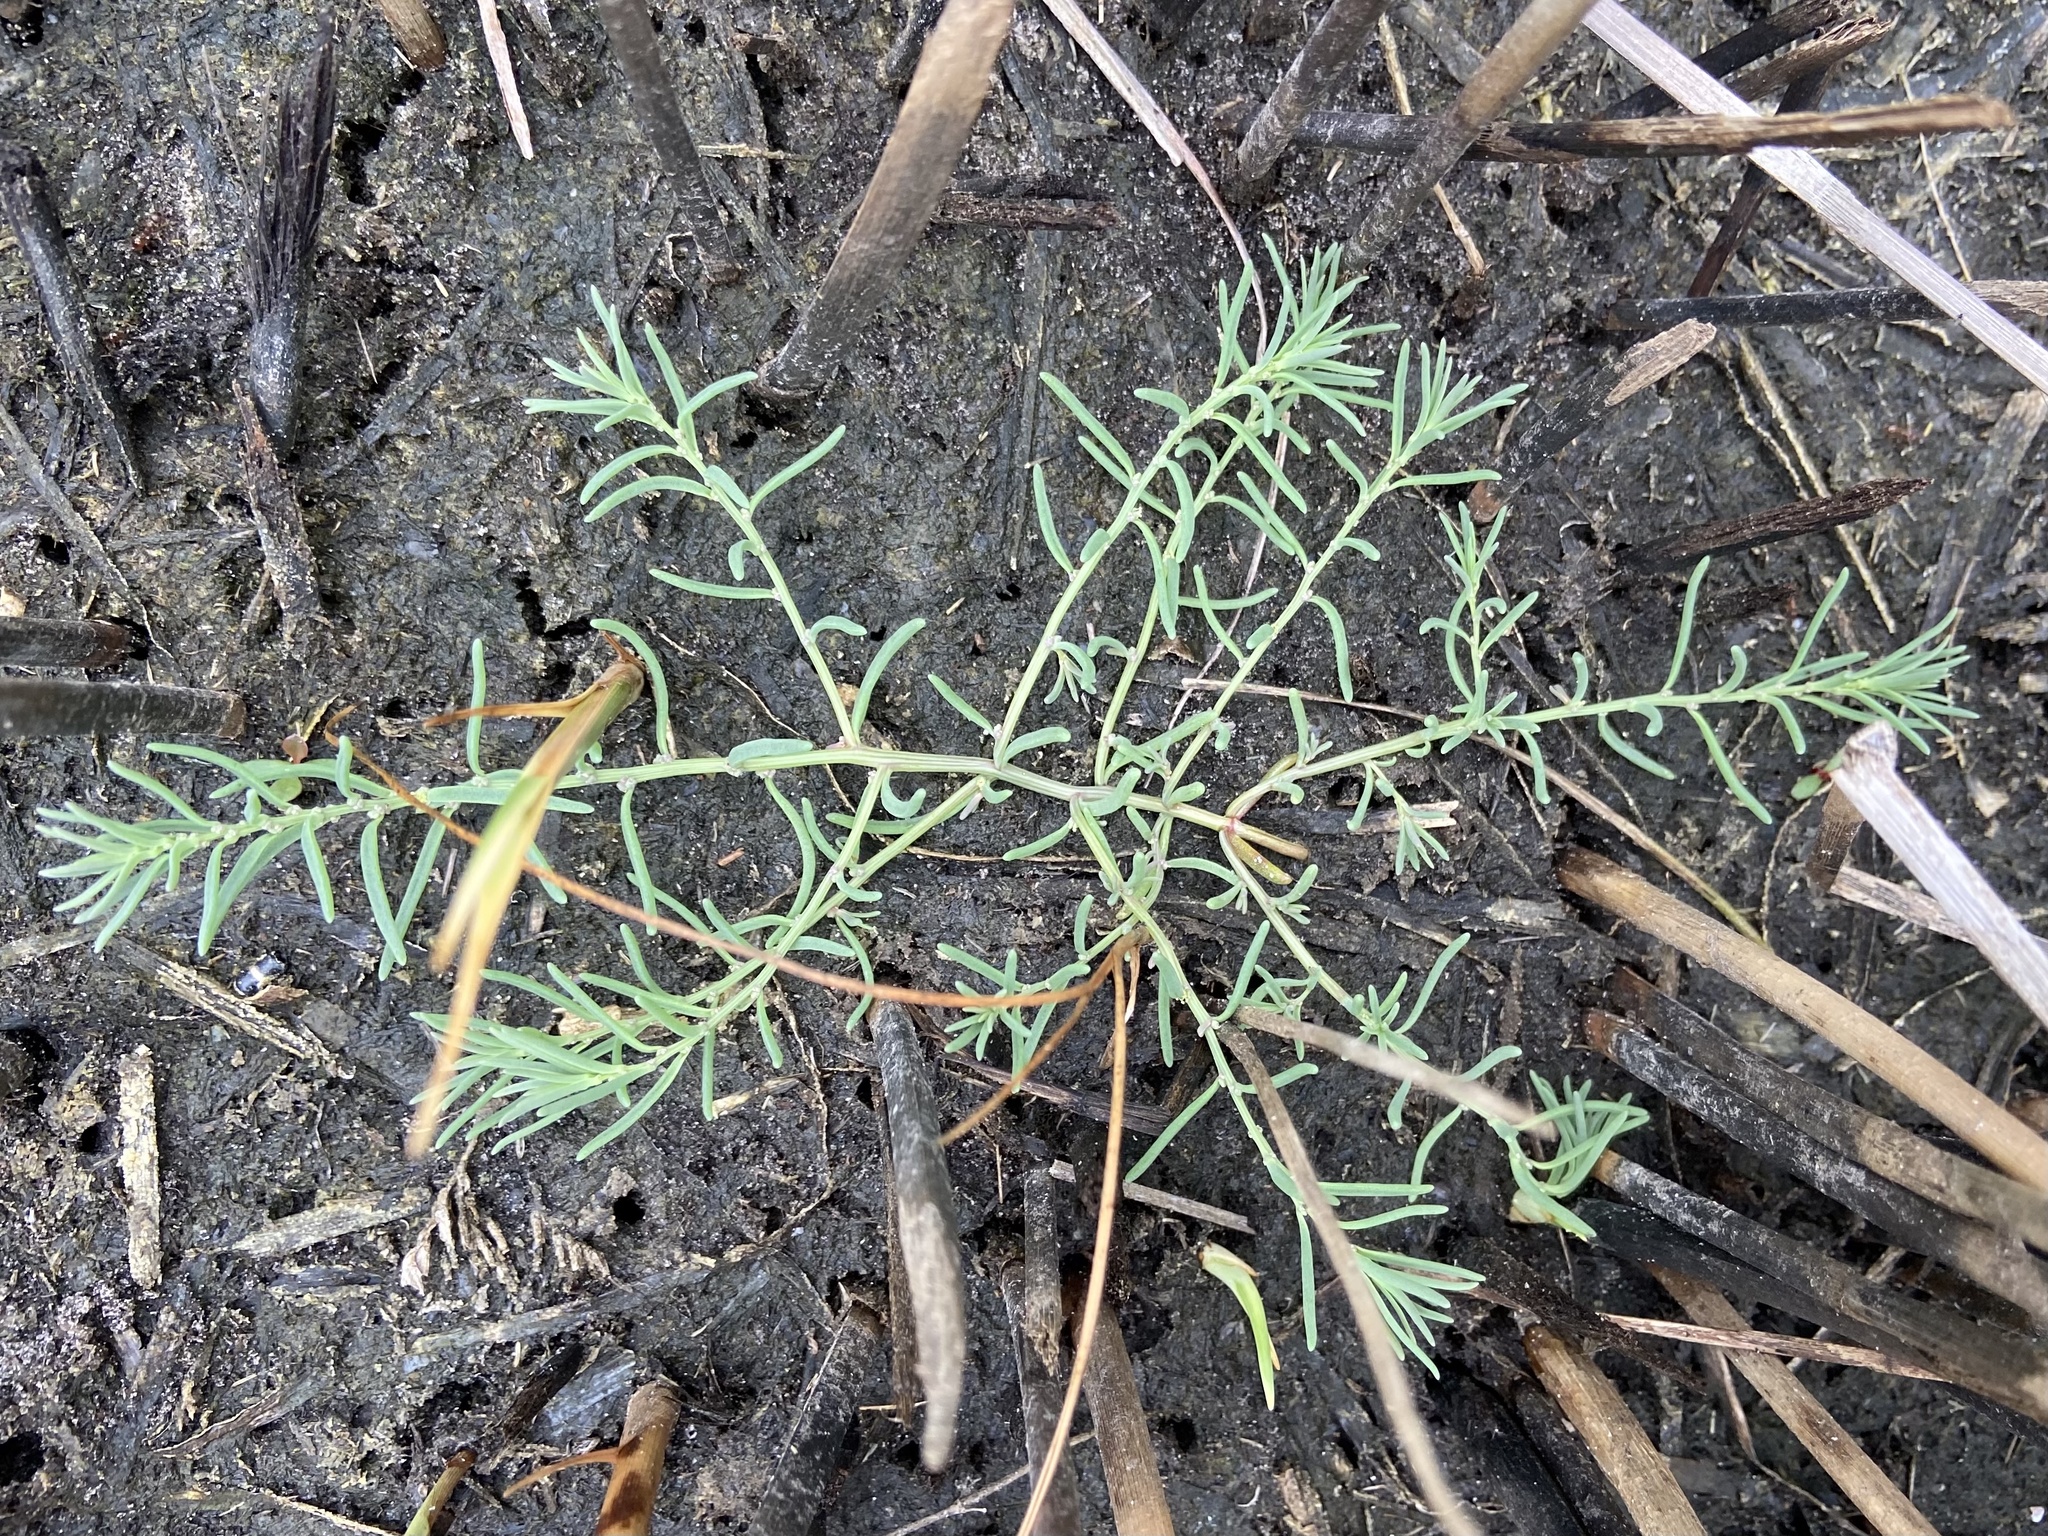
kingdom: Plantae
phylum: Tracheophyta
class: Magnoliopsida
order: Caryophyllales
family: Amaranthaceae
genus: Suaeda
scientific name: Suaeda maritima
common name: Annual sea-blite
